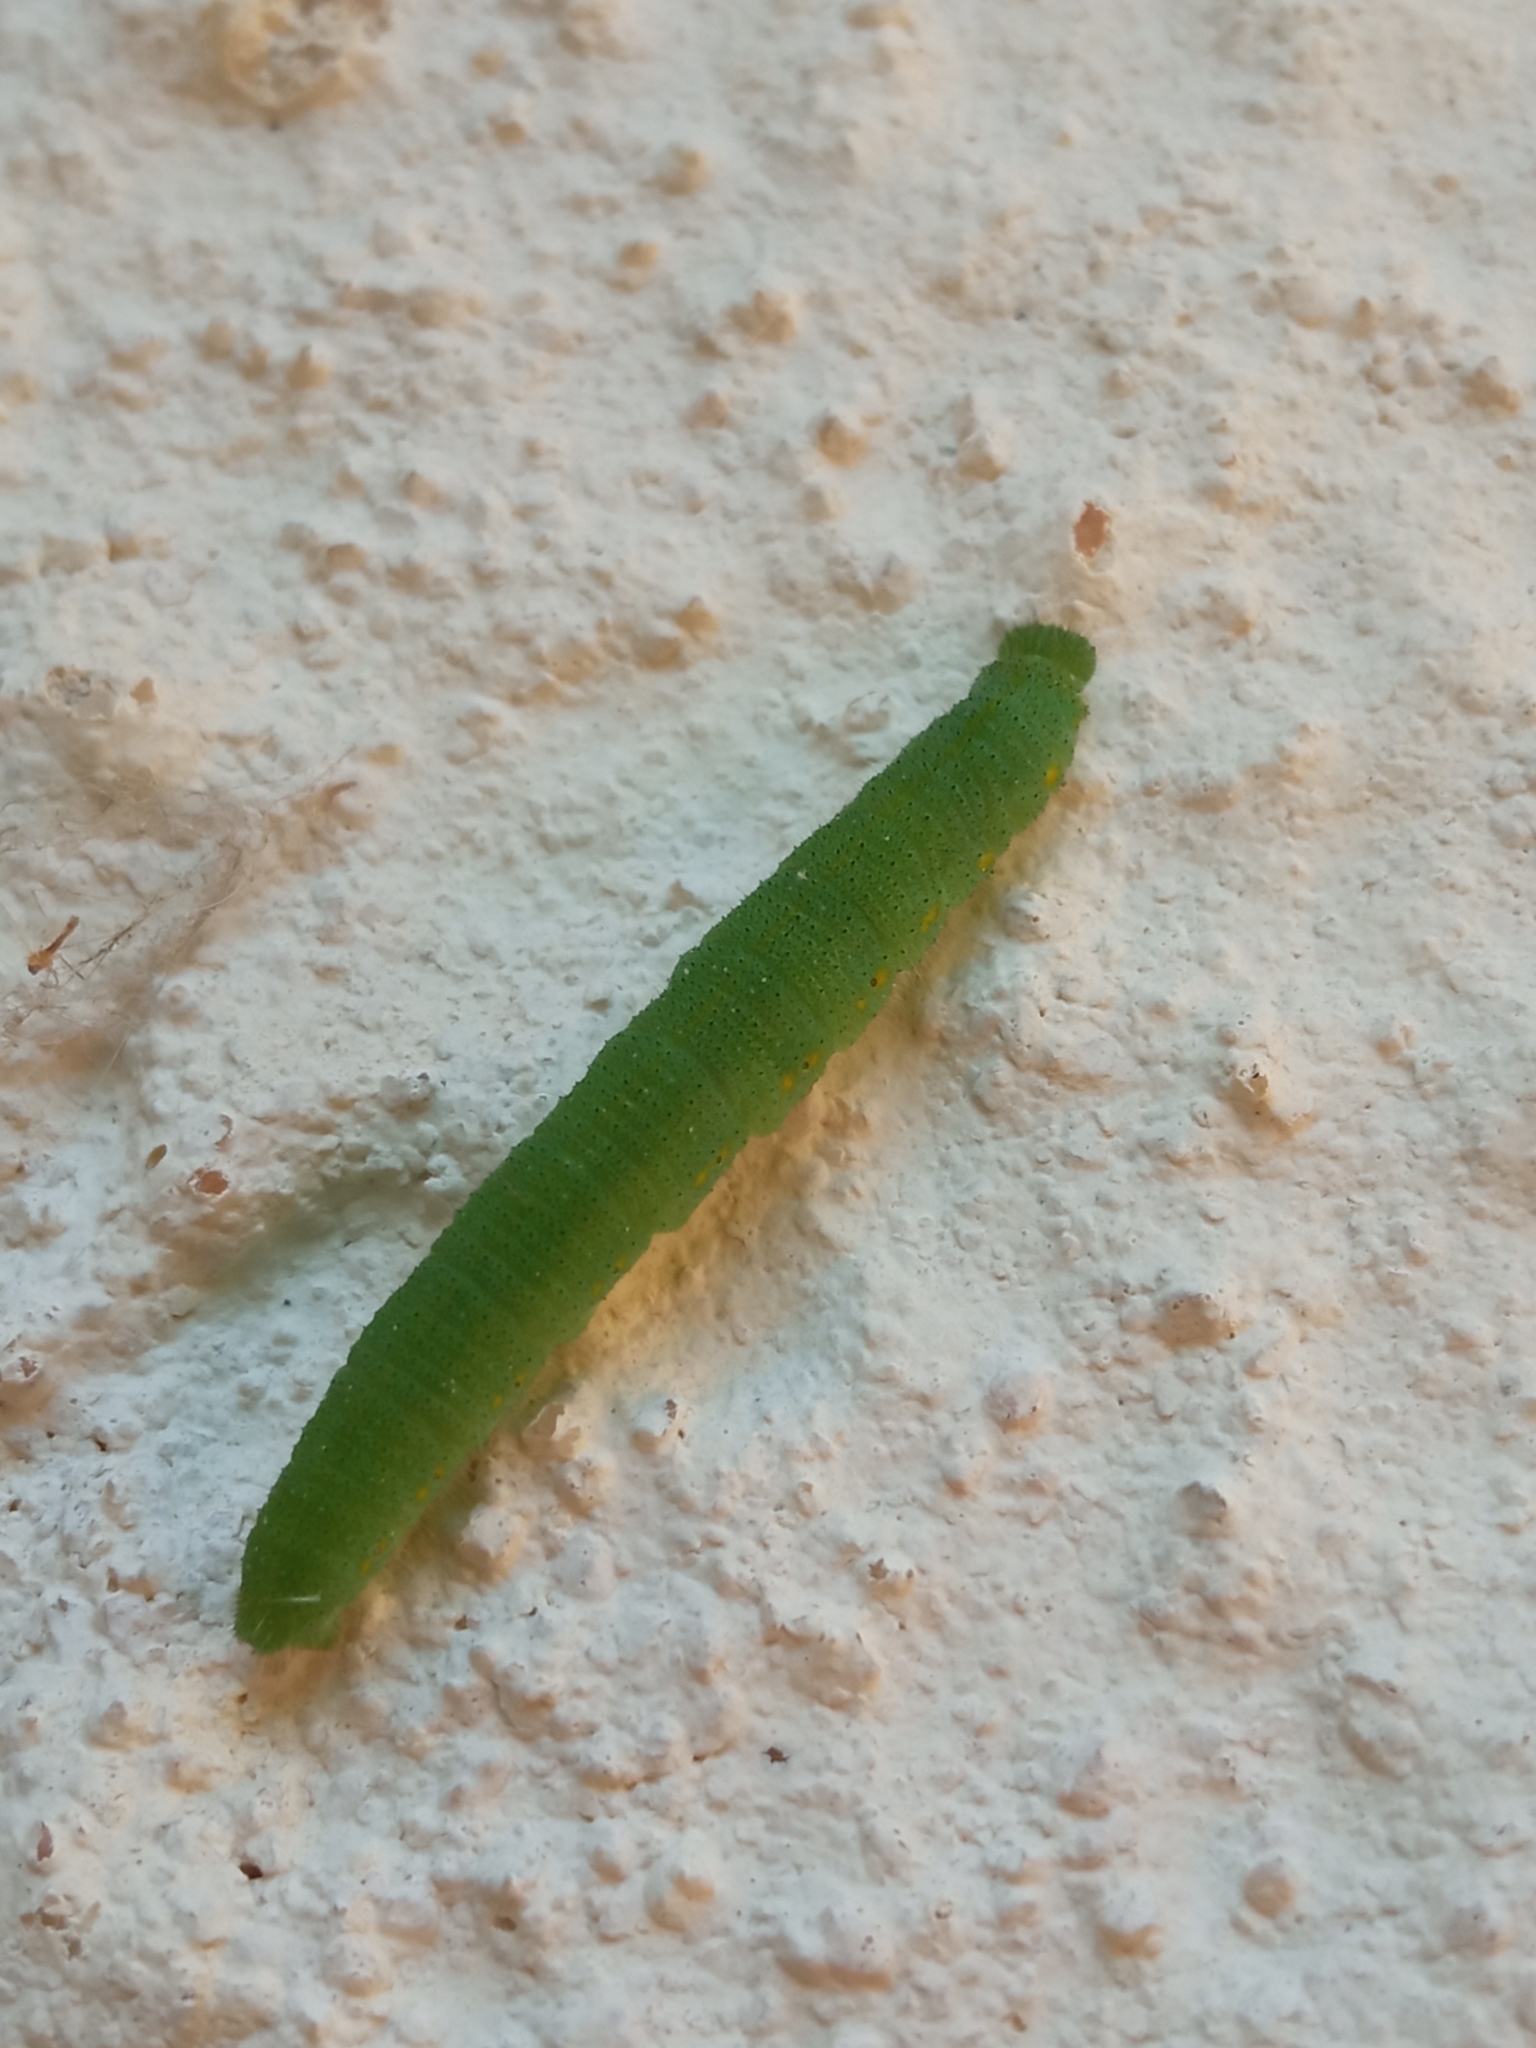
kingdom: Animalia
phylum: Arthropoda
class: Insecta
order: Lepidoptera
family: Pieridae
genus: Pieris
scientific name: Pieris rapae
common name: Small white
